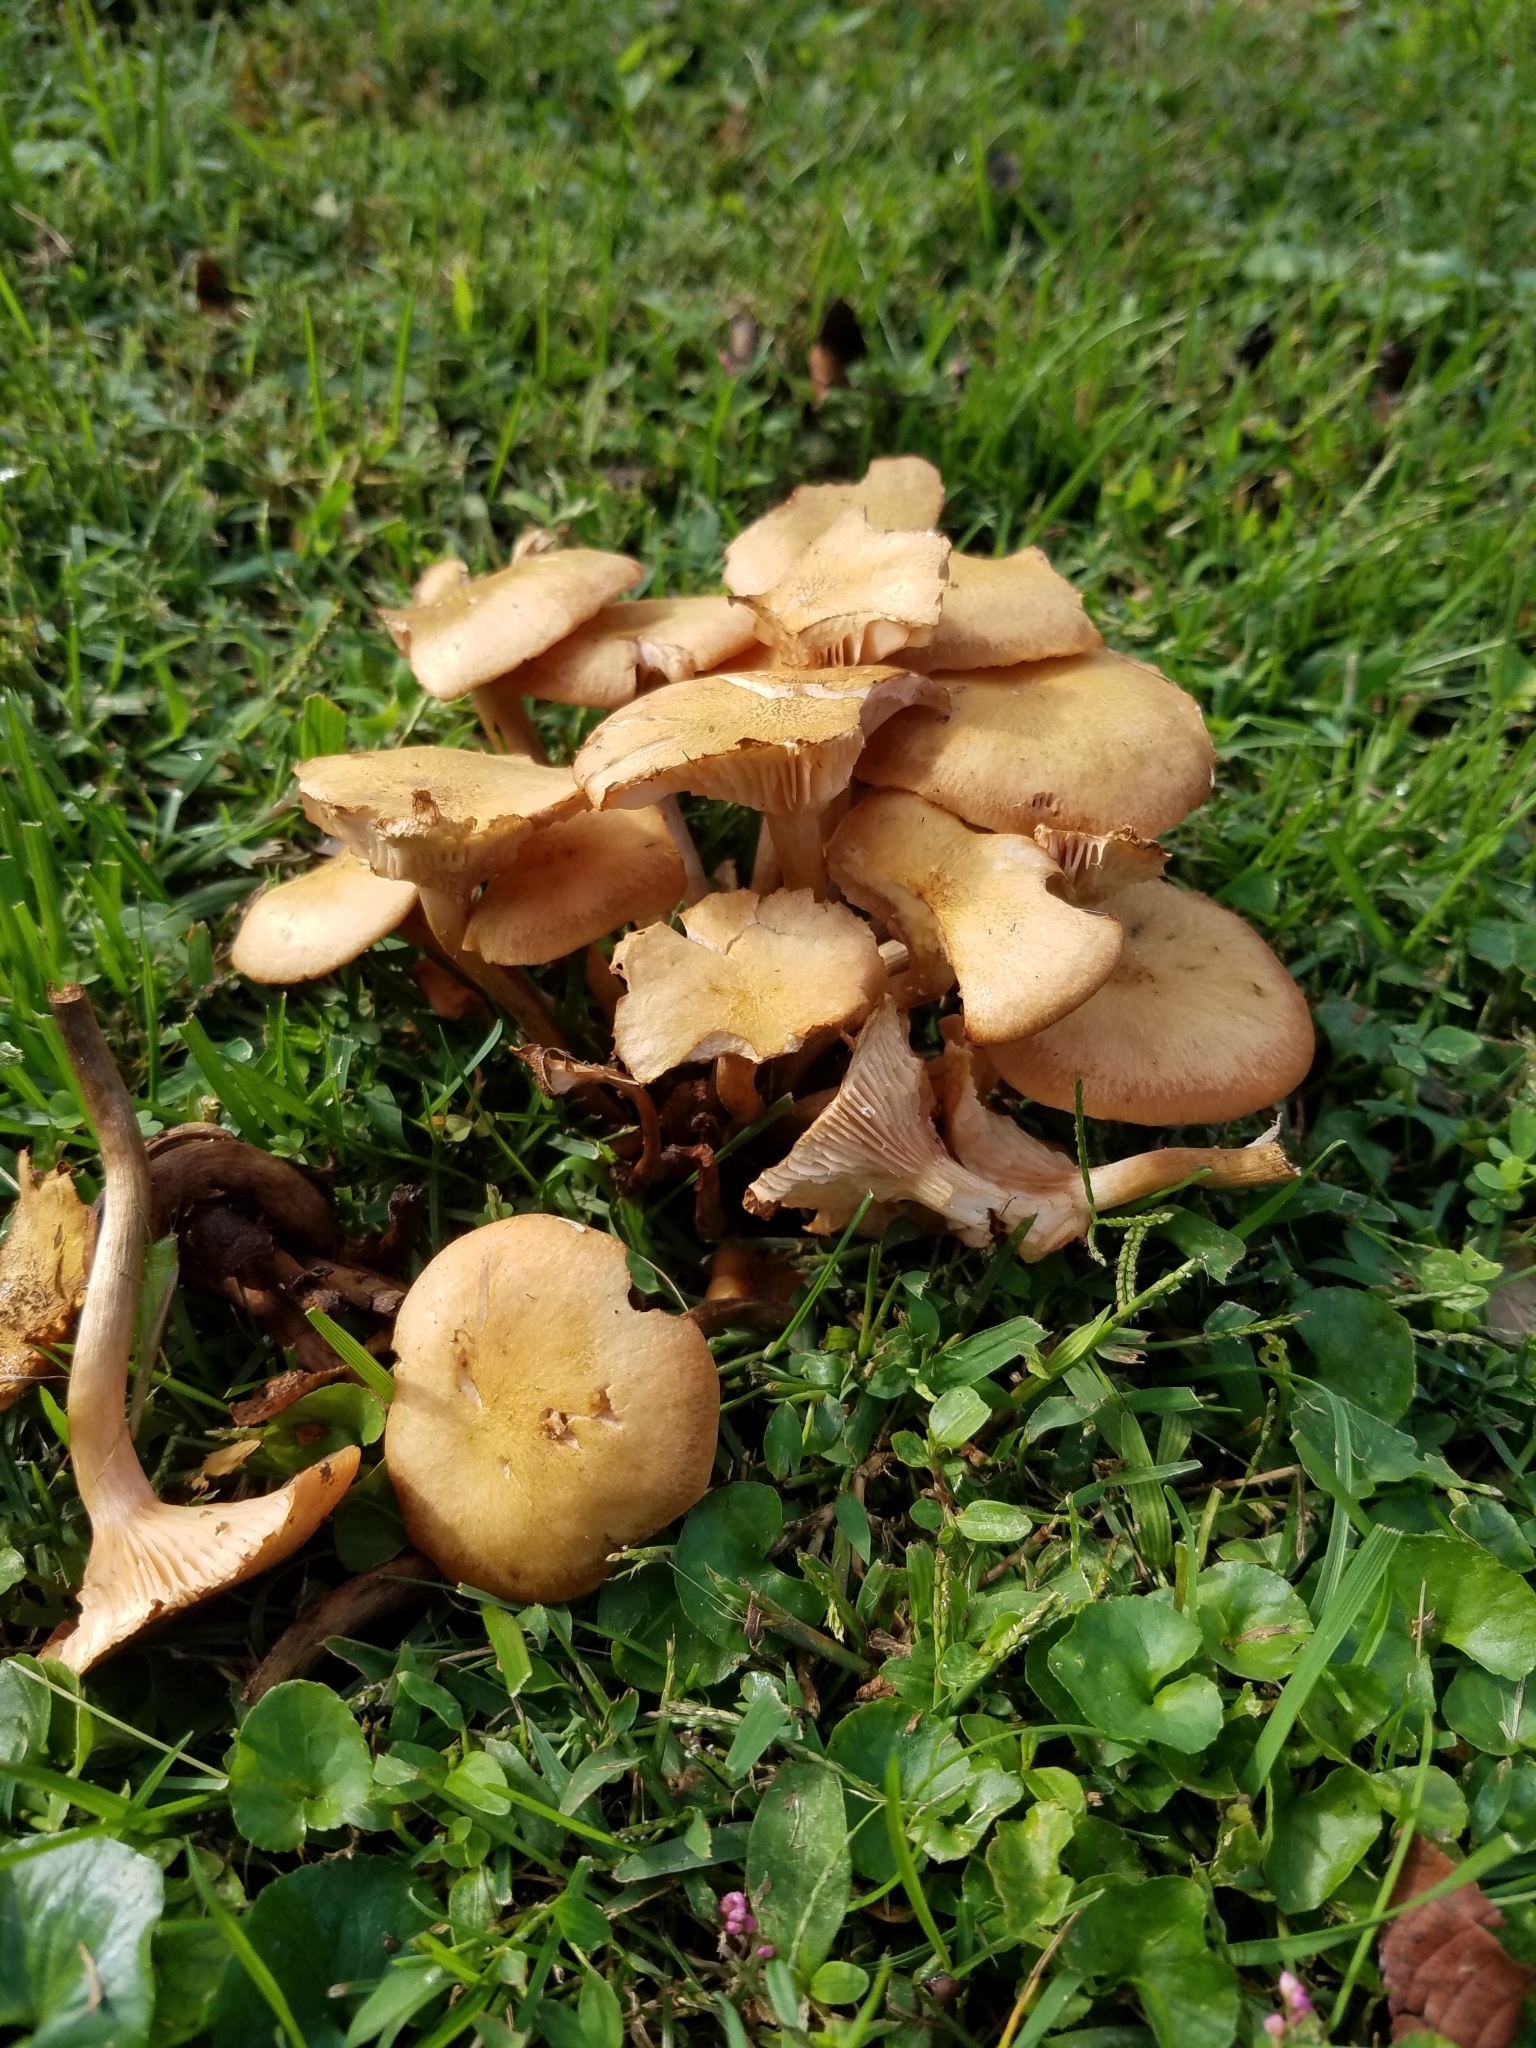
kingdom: Fungi
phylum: Basidiomycota
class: Agaricomycetes
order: Agaricales
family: Physalacriaceae
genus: Desarmillaria
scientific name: Desarmillaria caespitosa
